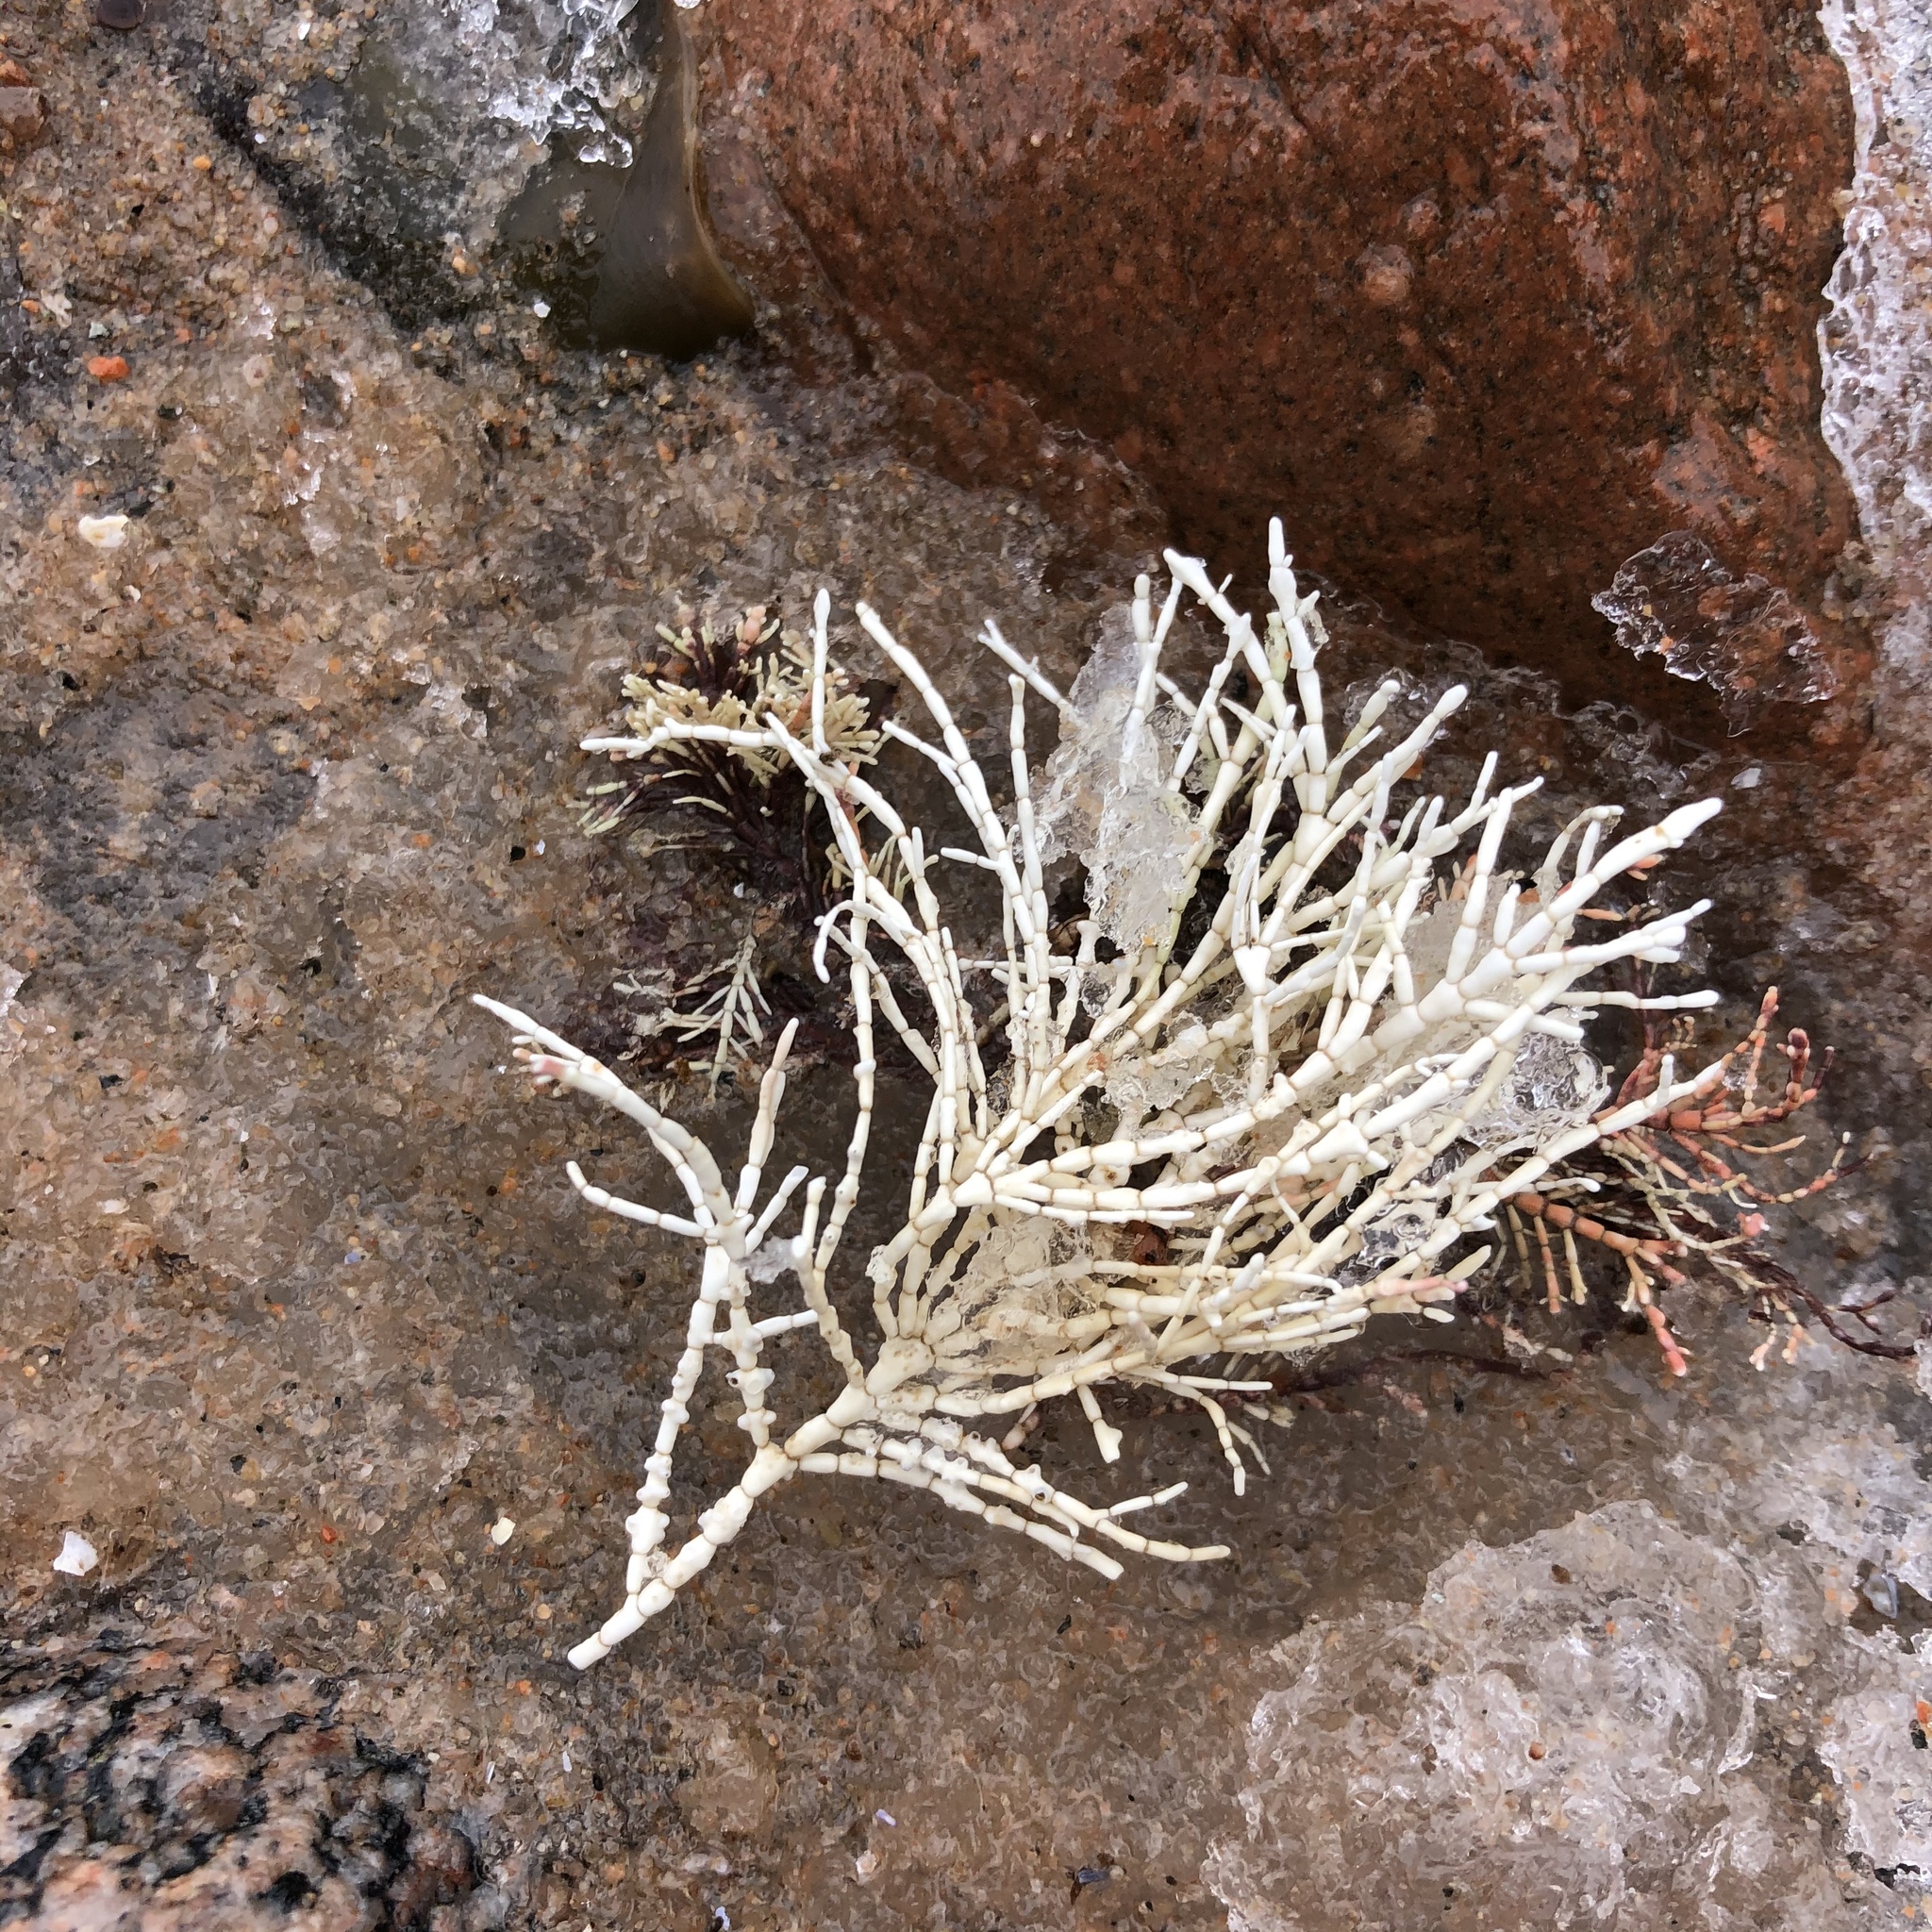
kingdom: Plantae
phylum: Rhodophyta
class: Florideophyceae
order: Corallinales
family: Corallinaceae
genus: Corallina
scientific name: Corallina officinalis
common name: Coral weed
